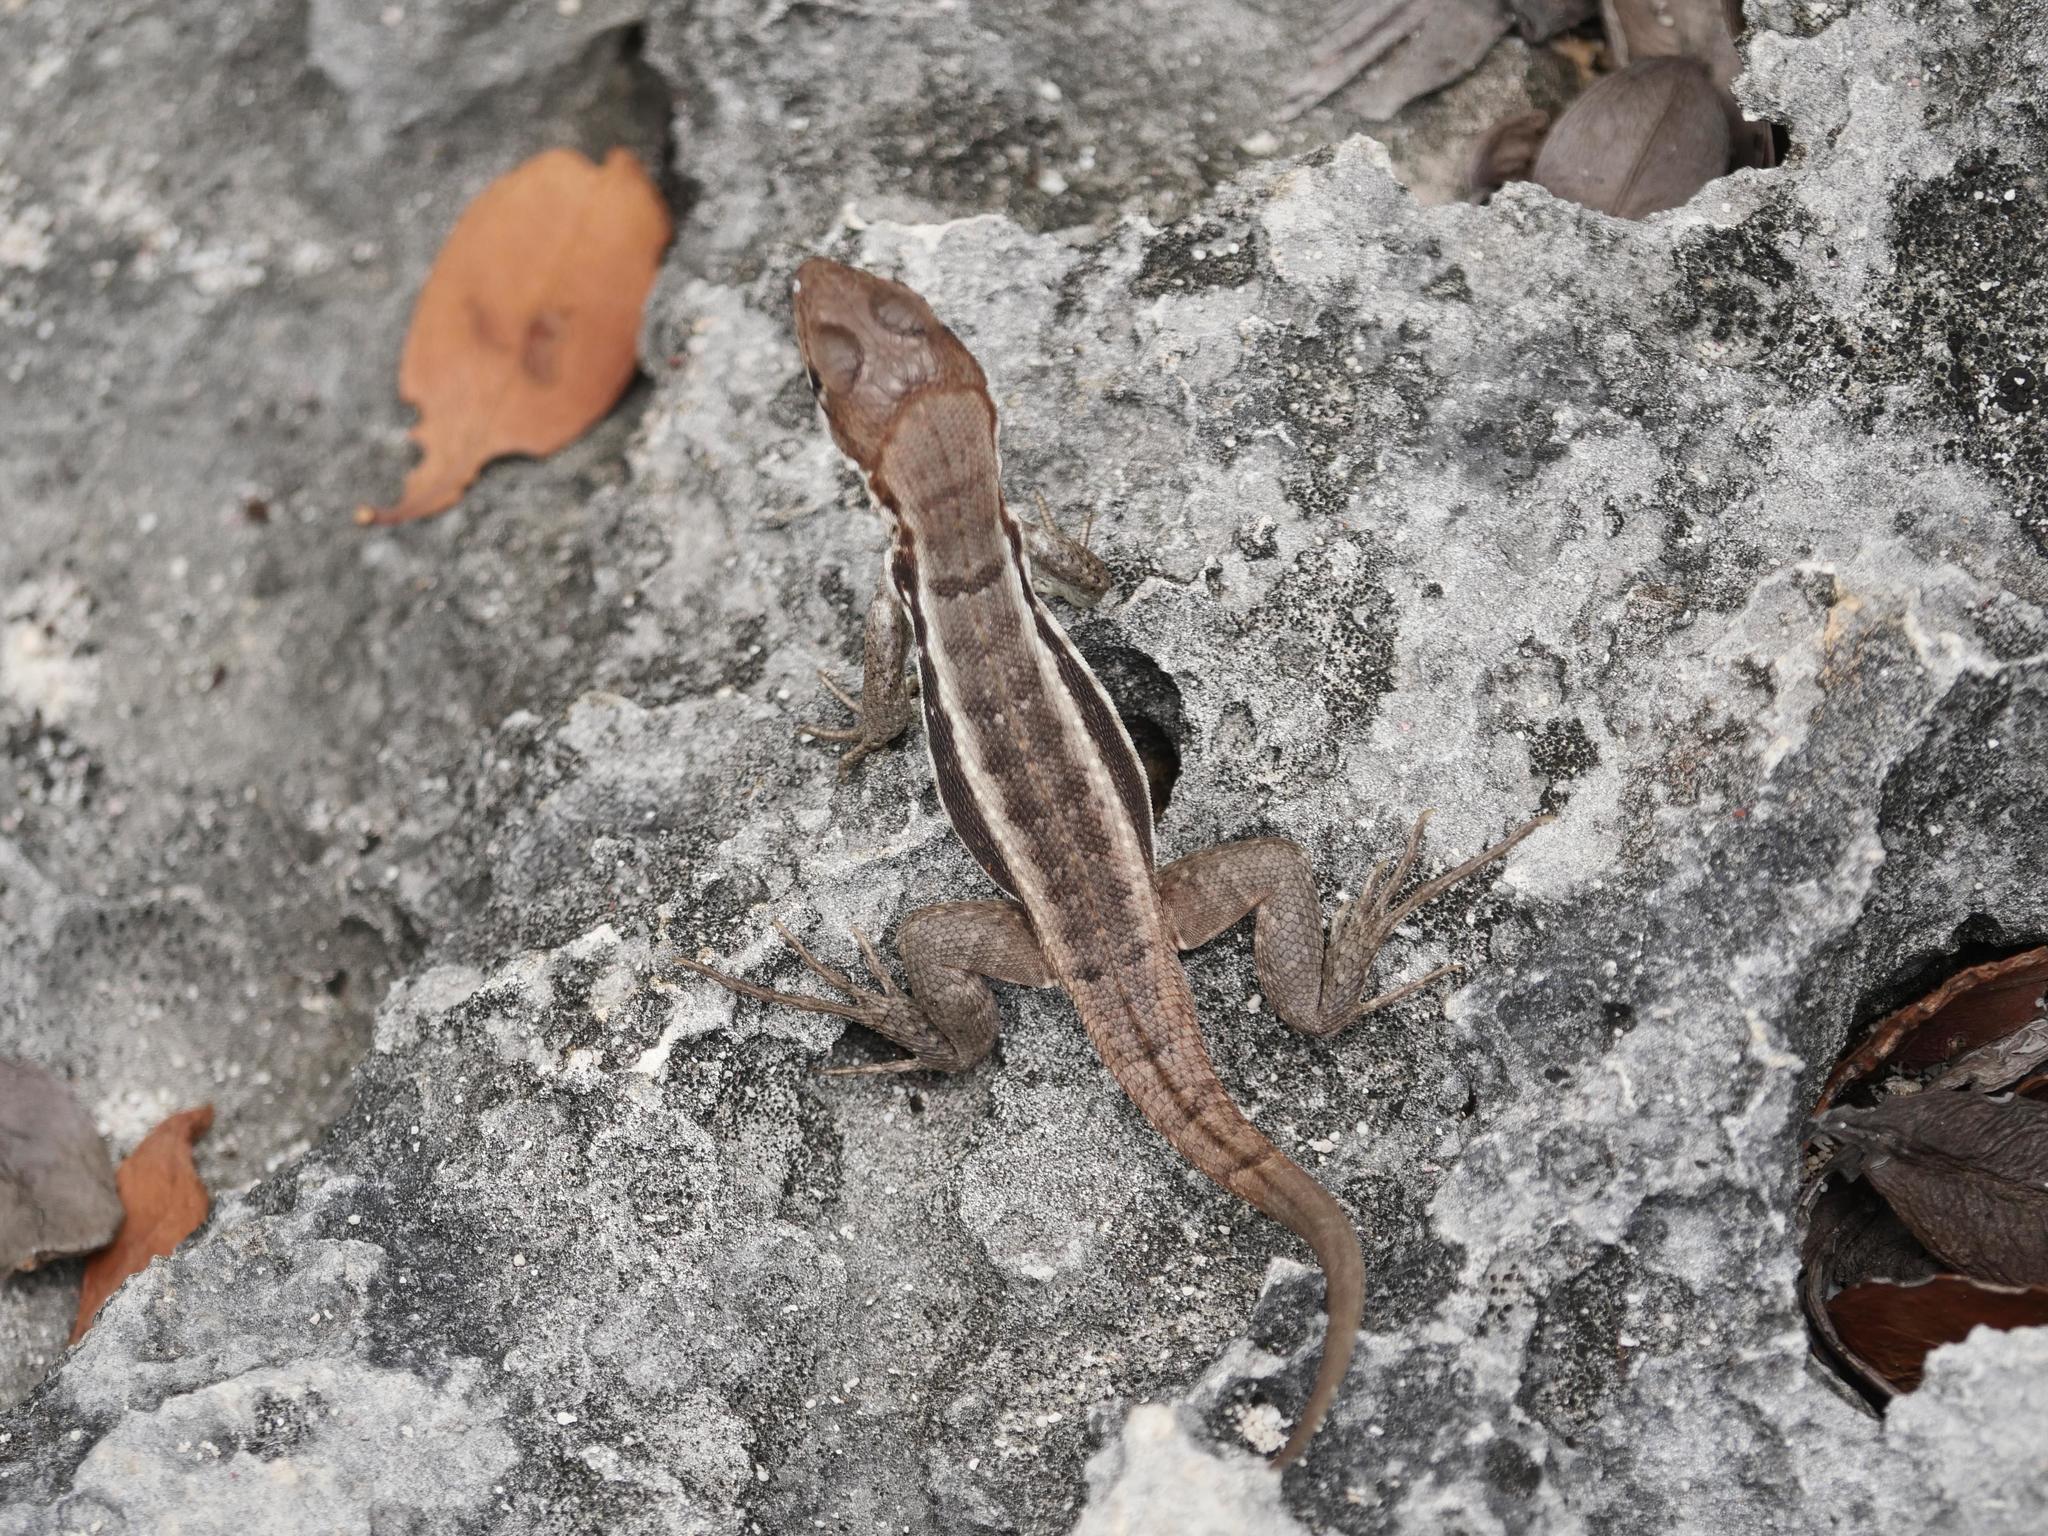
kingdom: Animalia
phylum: Chordata
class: Squamata
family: Leiocephalidae
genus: Leiocephalus
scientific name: Leiocephalus psammodromus
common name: Bastion cay curlytail lizard
